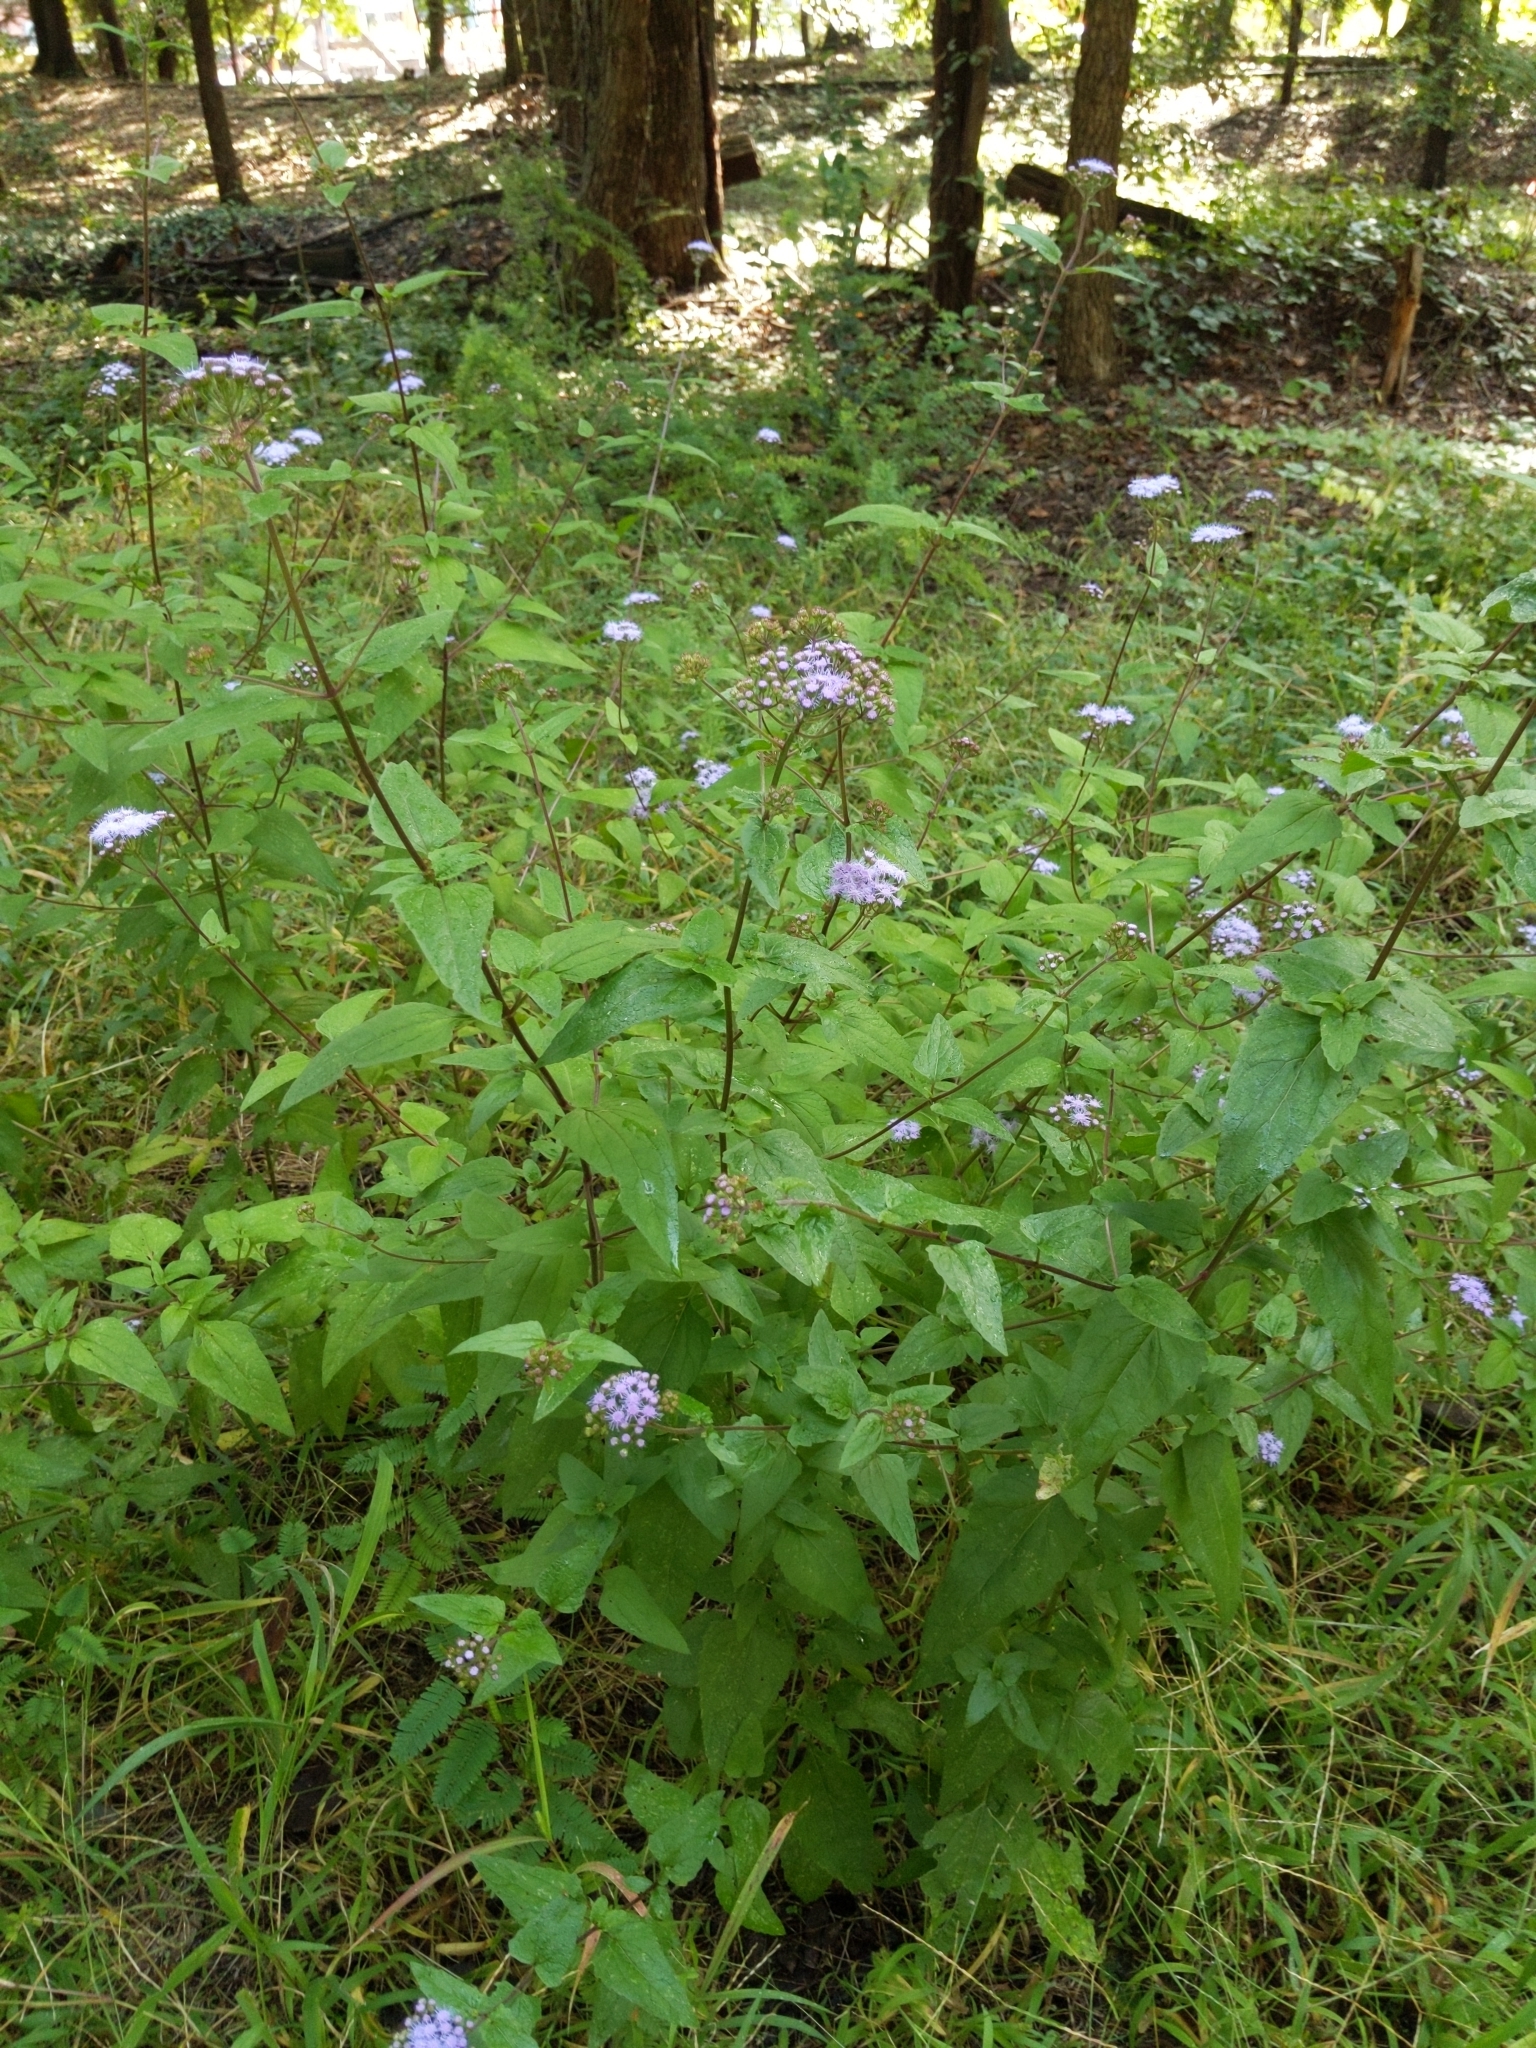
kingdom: Plantae
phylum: Tracheophyta
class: Magnoliopsida
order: Asterales
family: Asteraceae
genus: Conoclinium
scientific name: Conoclinium coelestinum
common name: Blue mistflower
